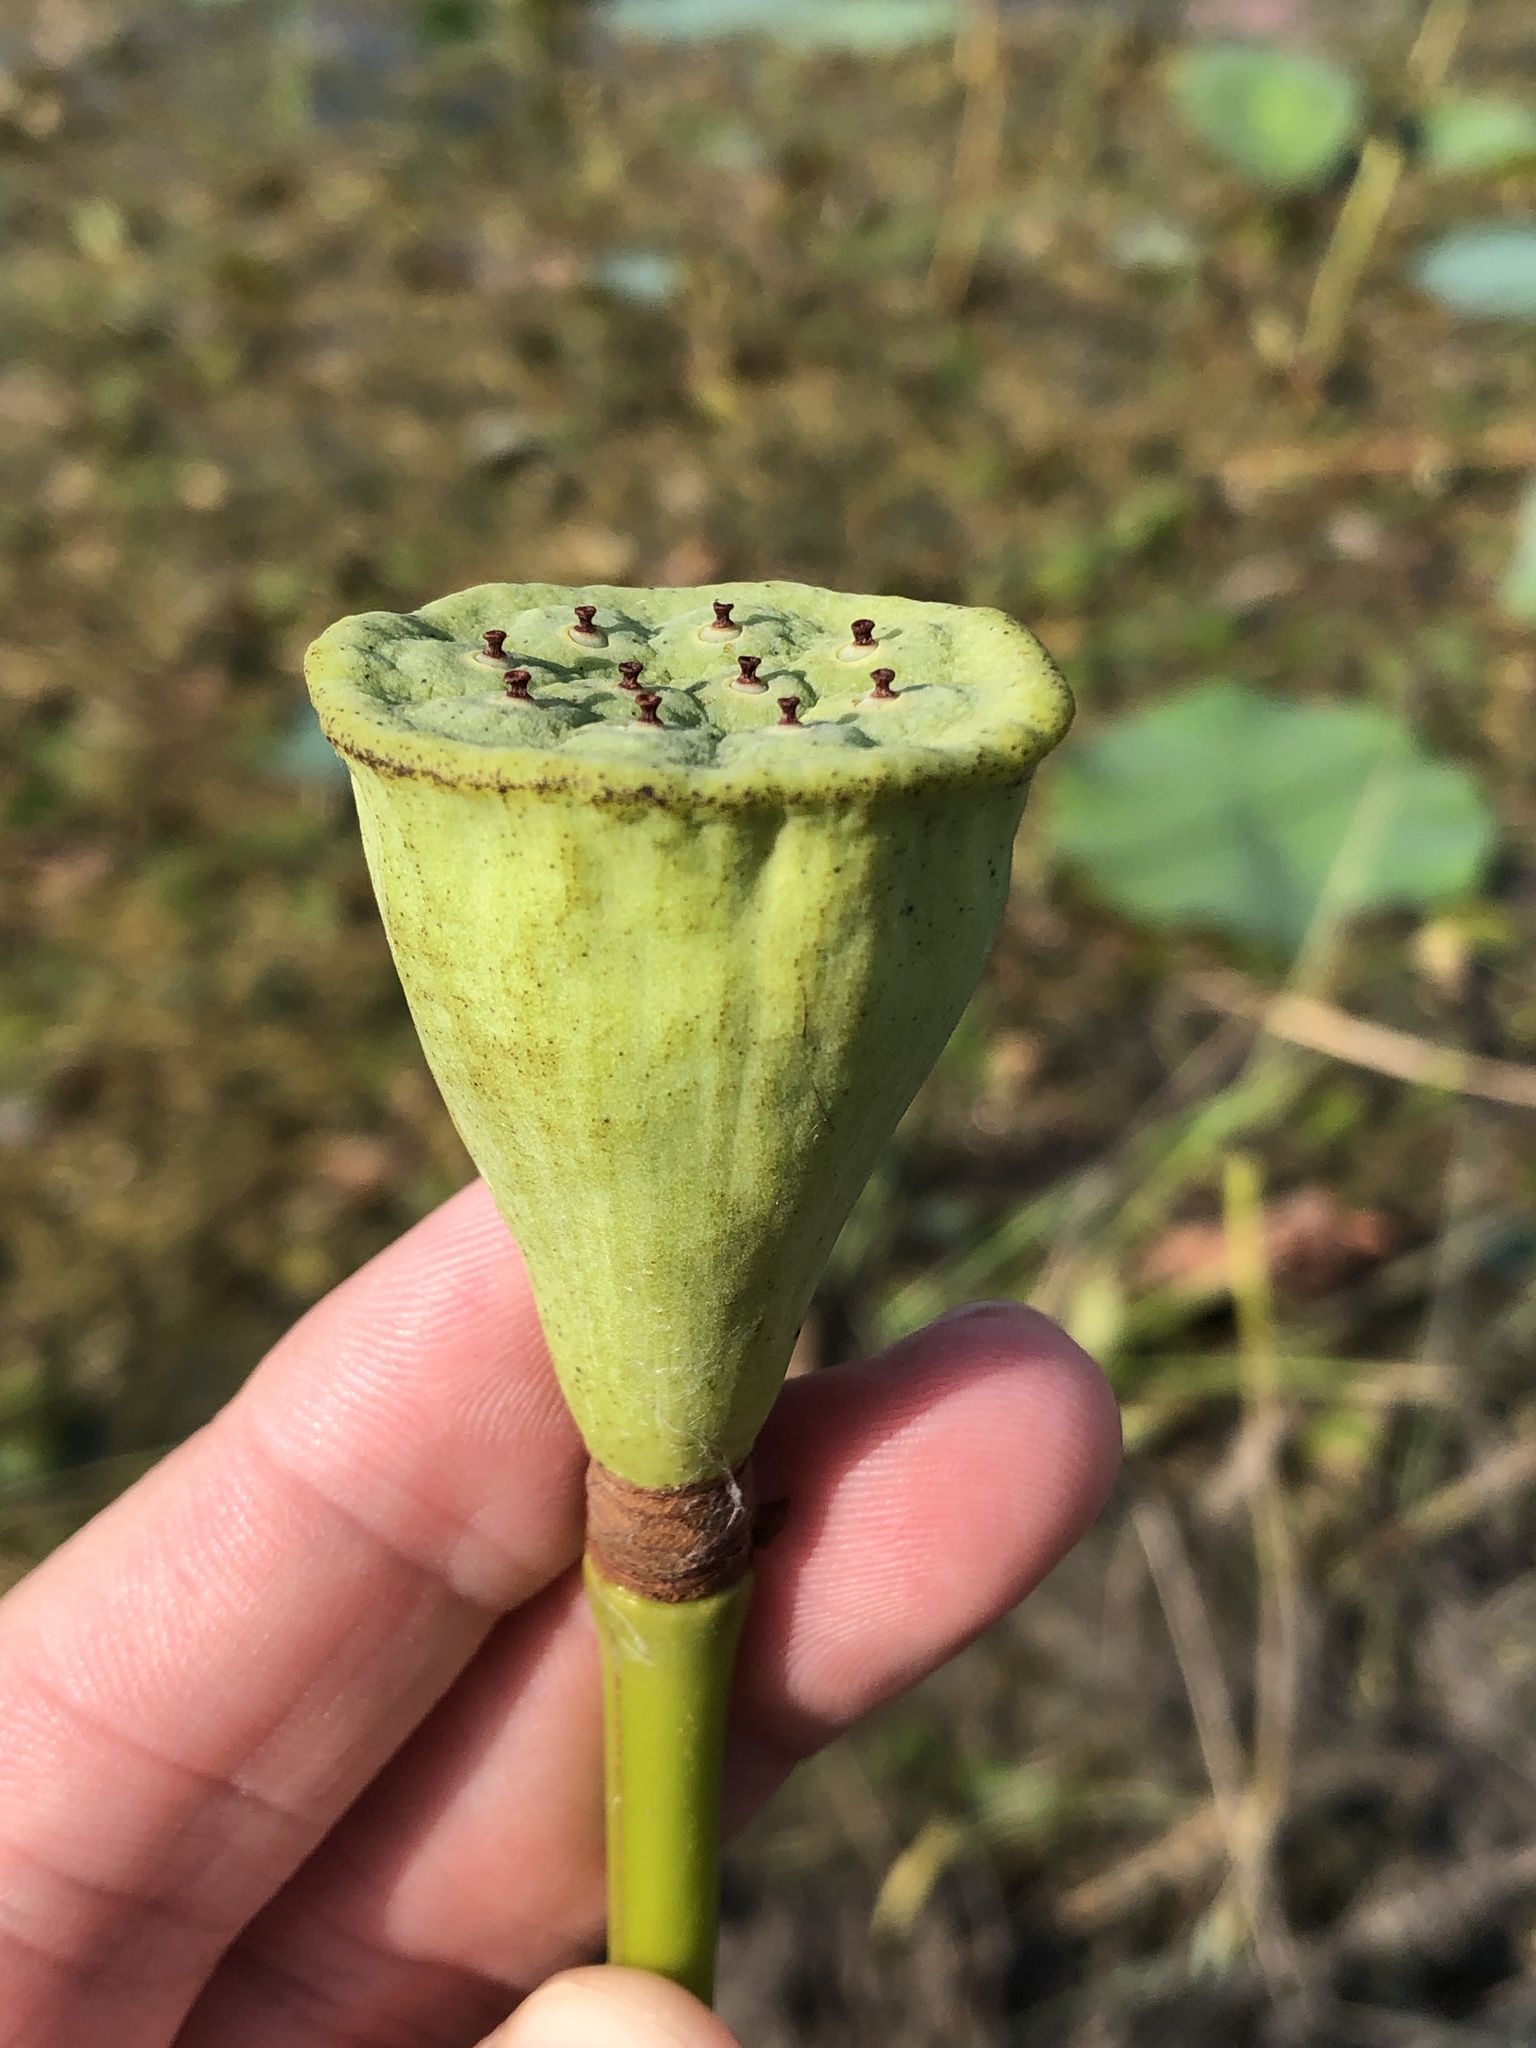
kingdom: Plantae
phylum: Tracheophyta
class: Magnoliopsida
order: Proteales
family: Nelumbonaceae
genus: Nelumbo
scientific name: Nelumbo lutea
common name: American lotus
